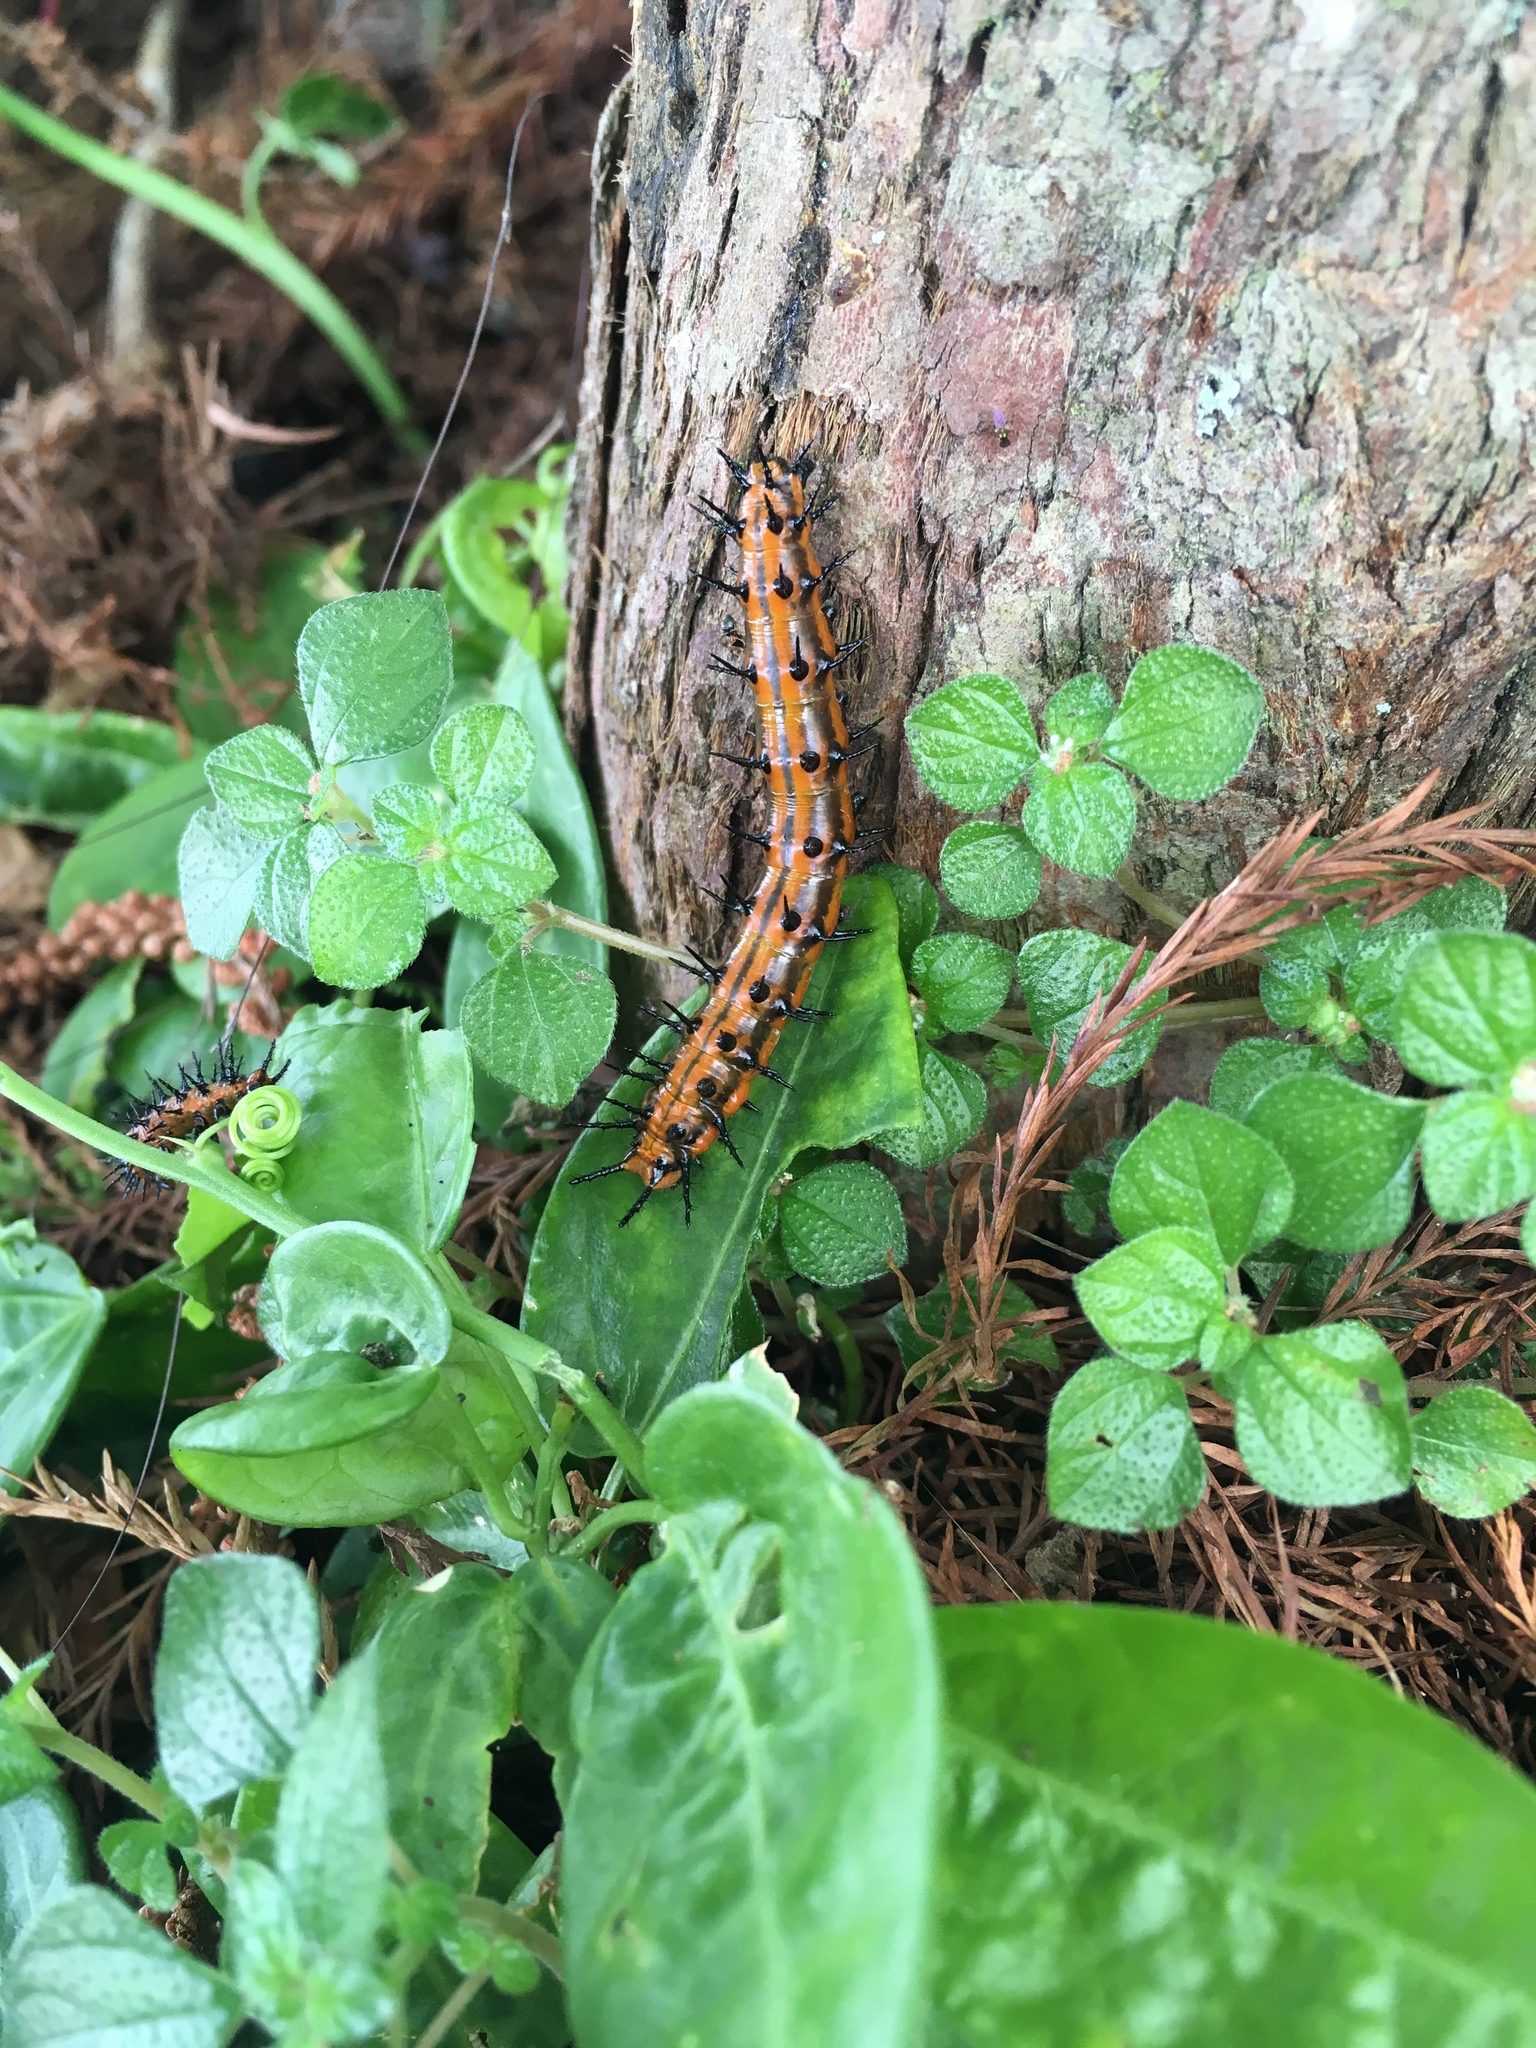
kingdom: Animalia
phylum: Arthropoda
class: Insecta
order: Lepidoptera
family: Nymphalidae
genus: Dione
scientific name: Dione vanillae
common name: Gulf fritillary
